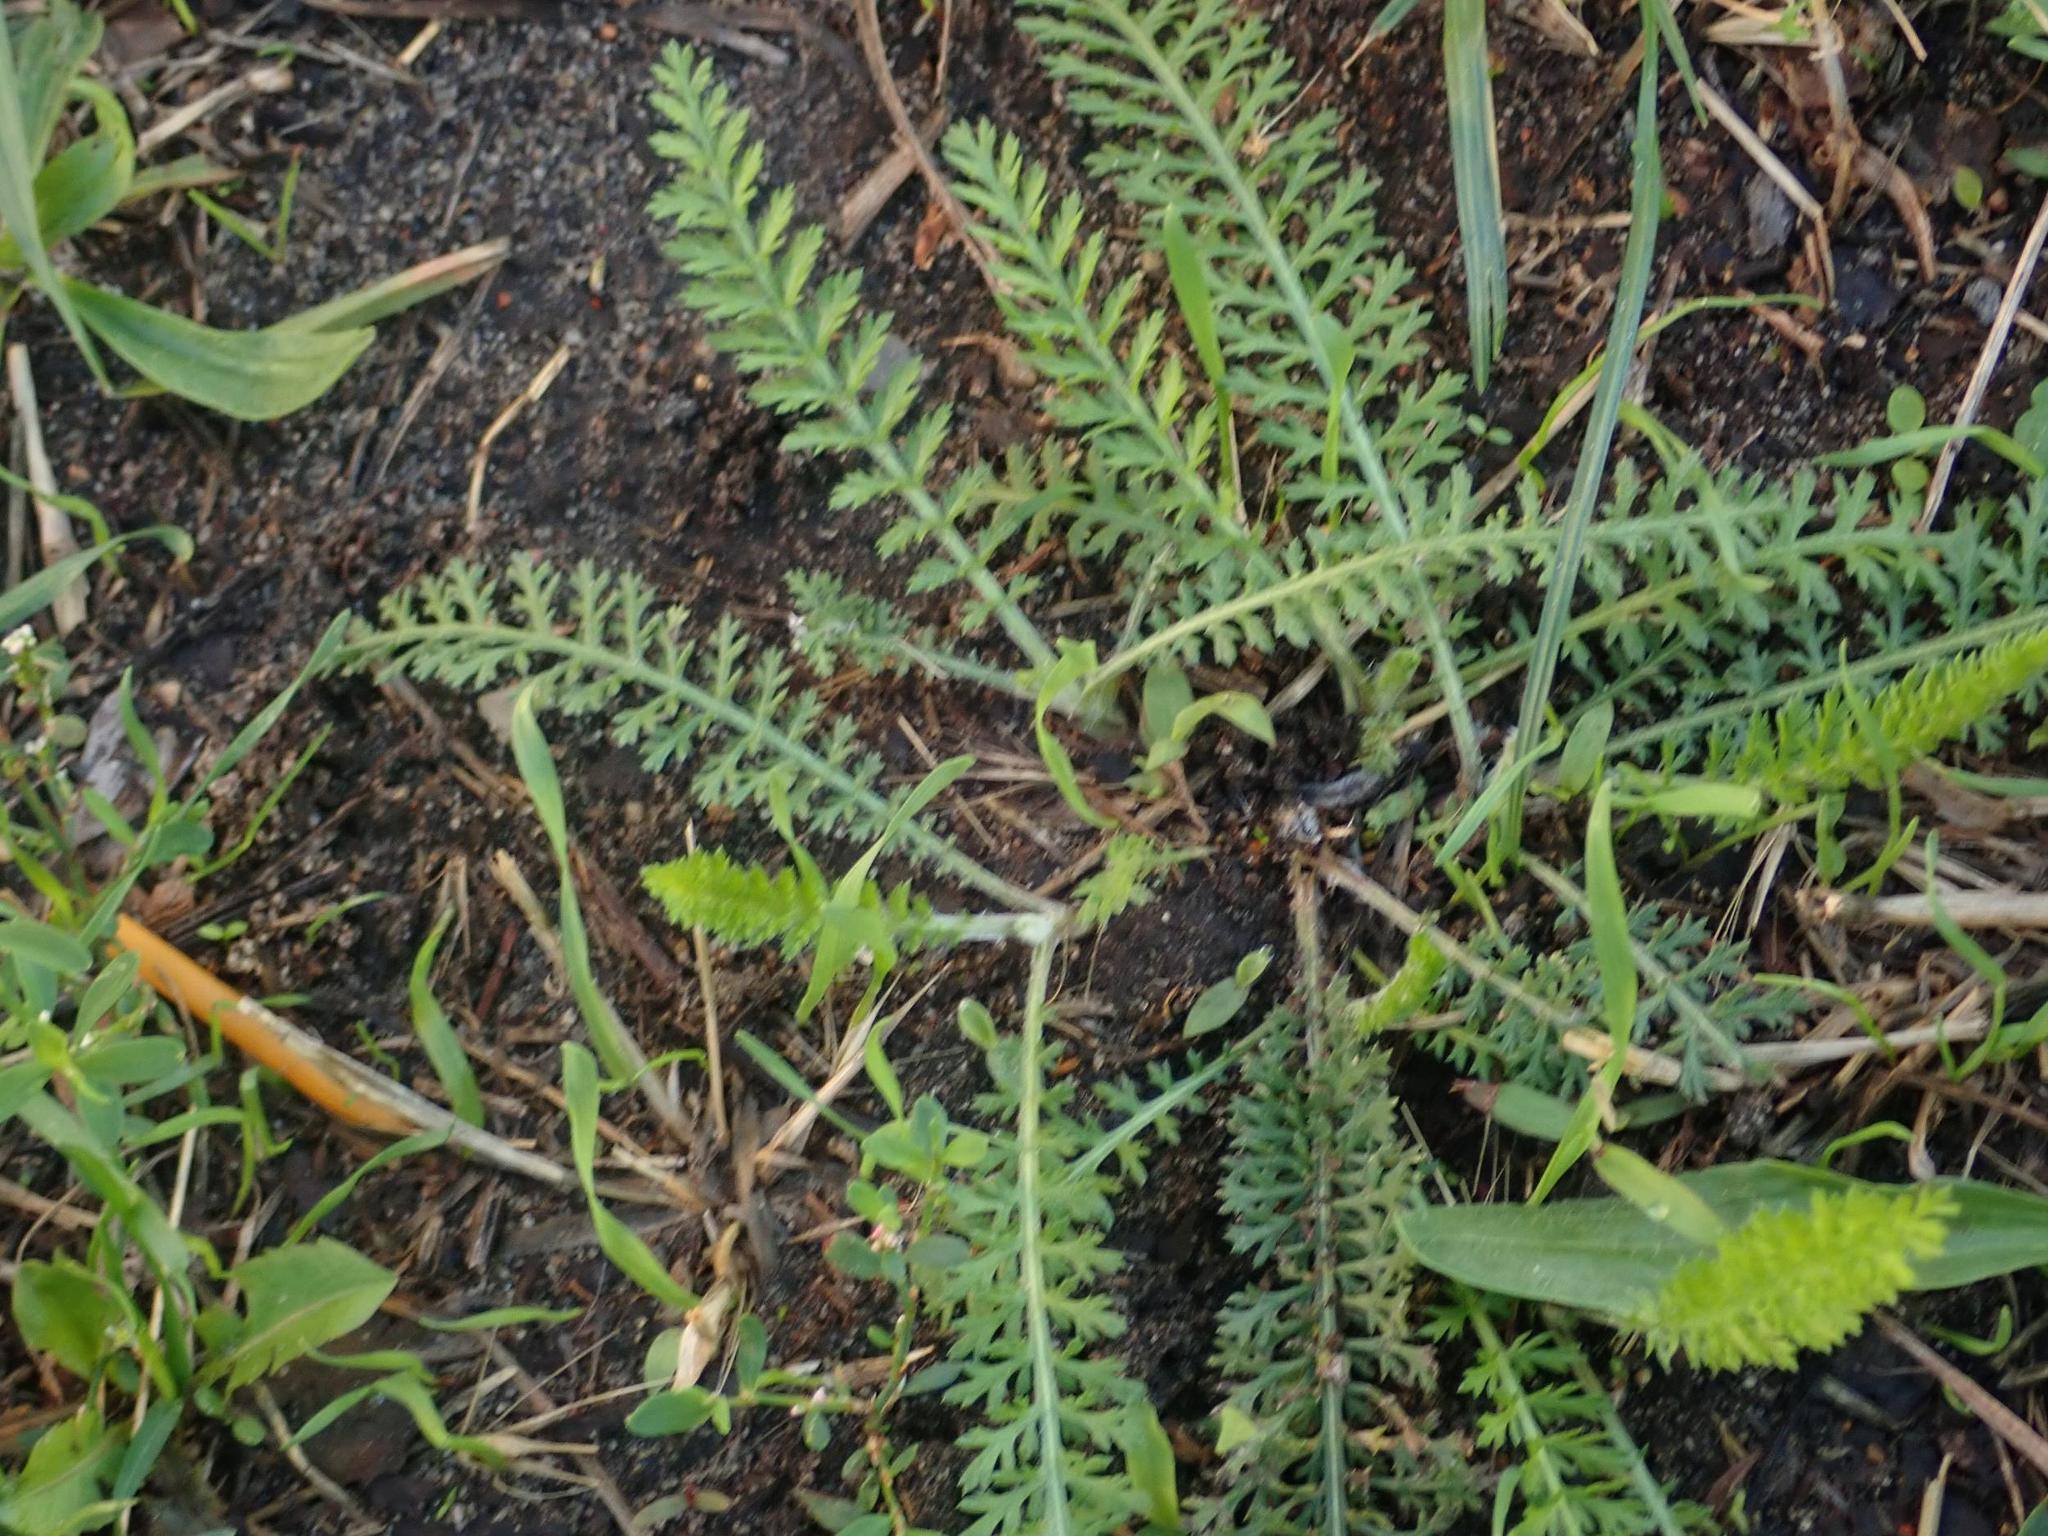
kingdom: Plantae
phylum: Tracheophyta
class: Magnoliopsida
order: Asterales
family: Asteraceae
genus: Achillea
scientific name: Achillea millefolium
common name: Yarrow
